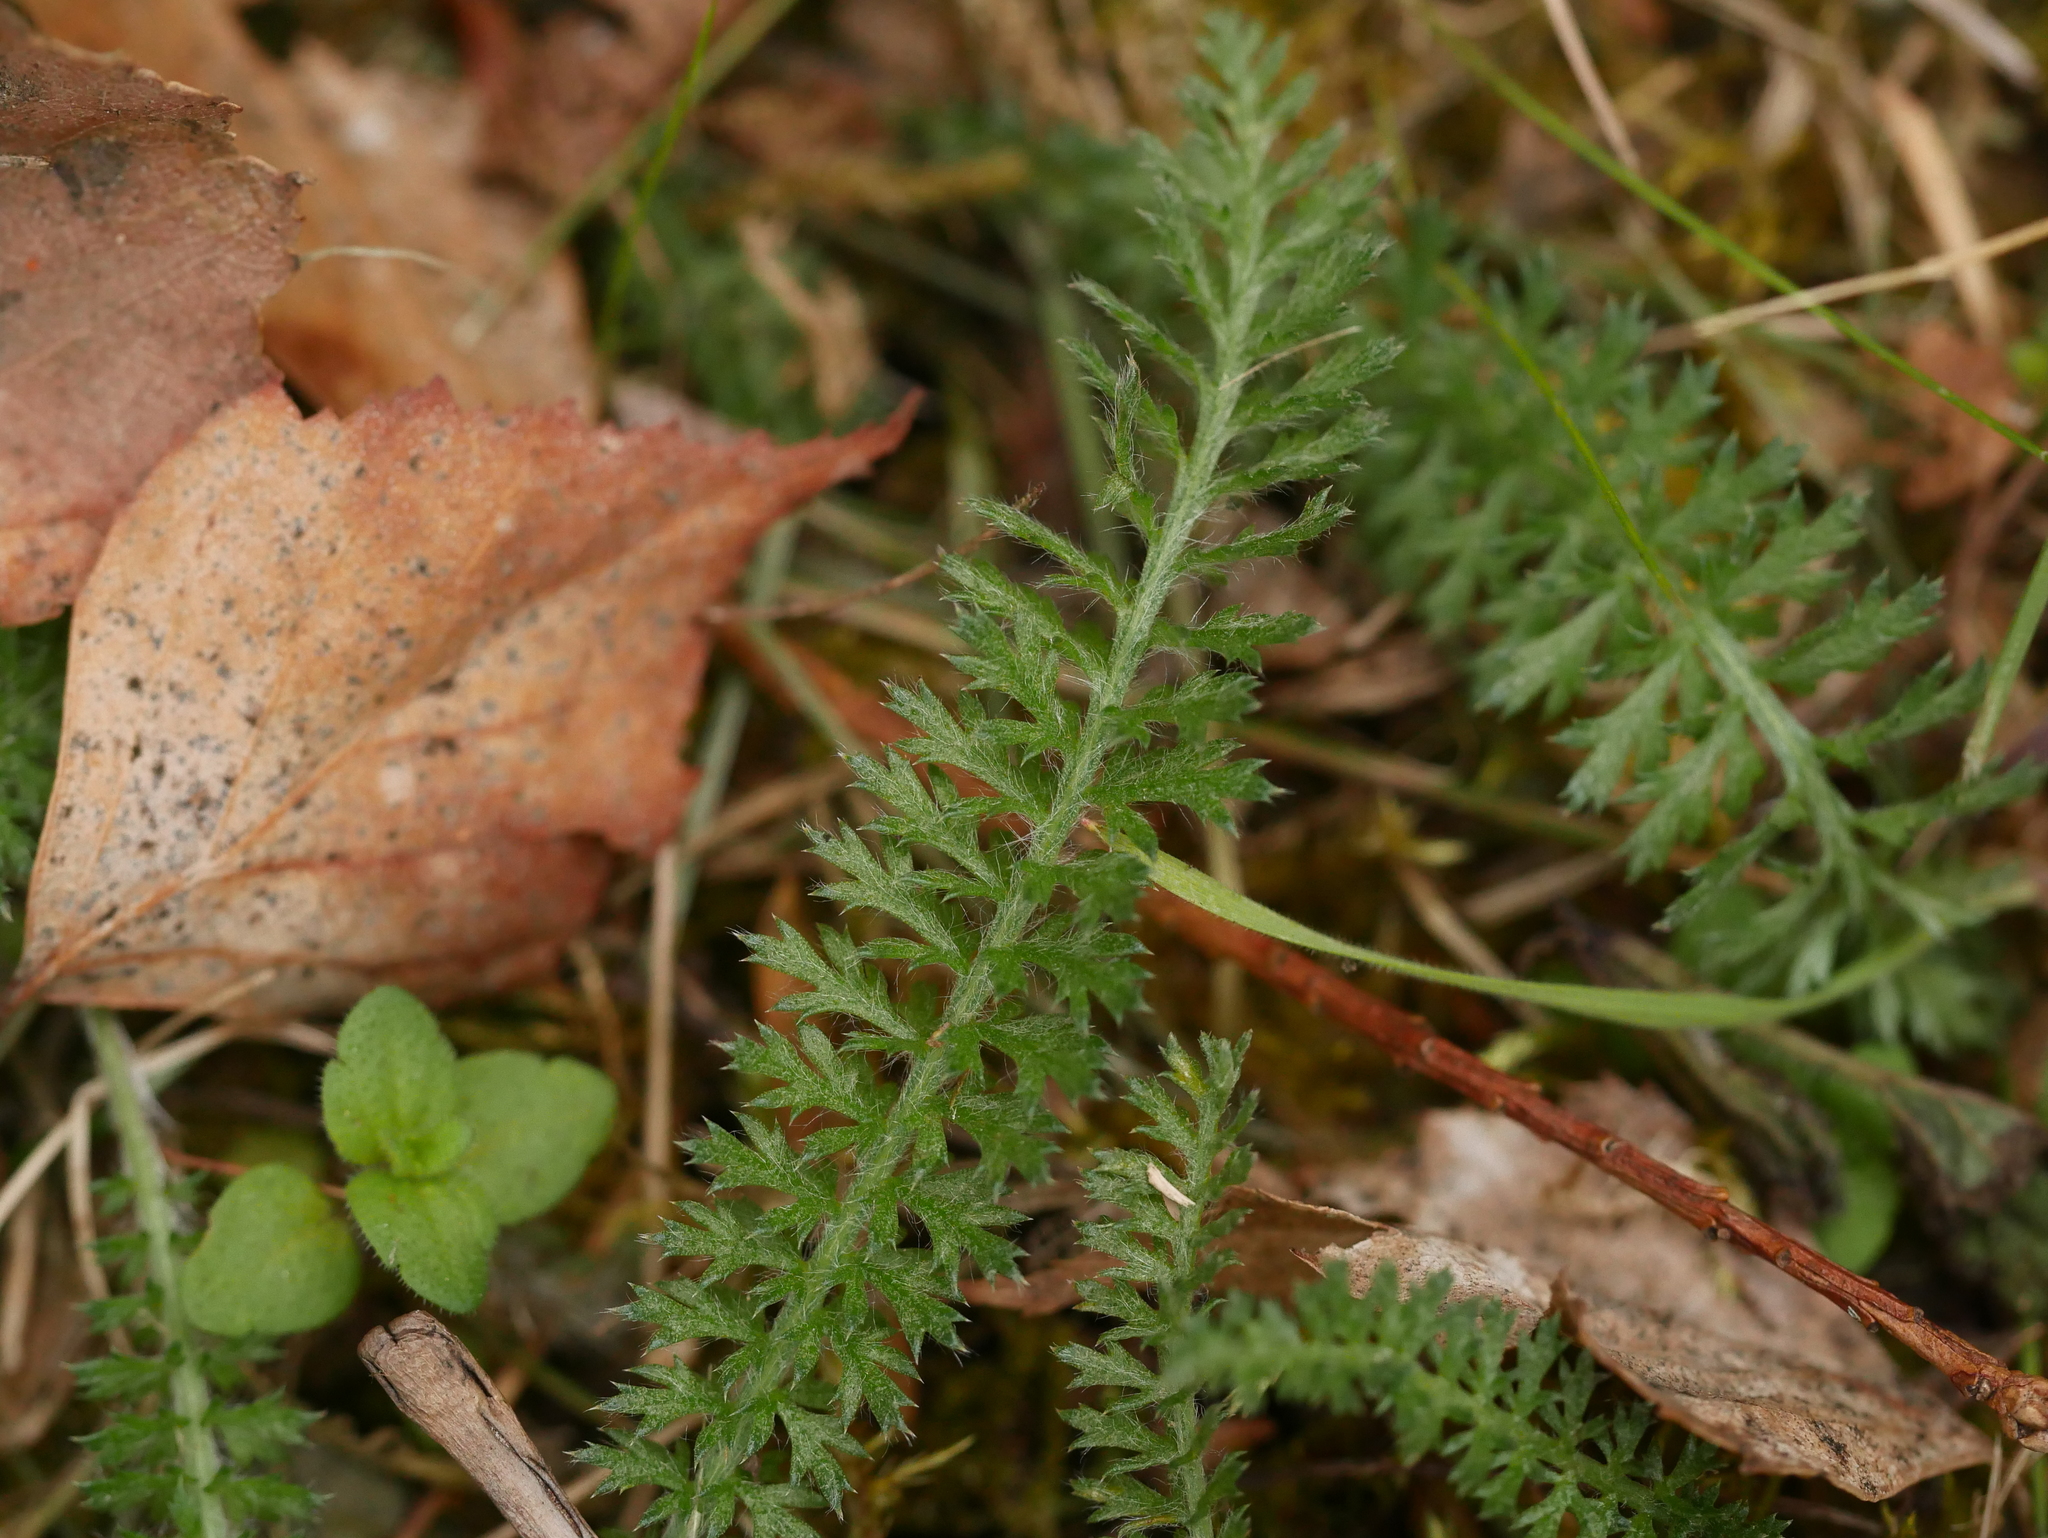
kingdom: Plantae
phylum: Tracheophyta
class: Magnoliopsida
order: Asterales
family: Asteraceae
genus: Achillea
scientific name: Achillea millefolium
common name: Yarrow
